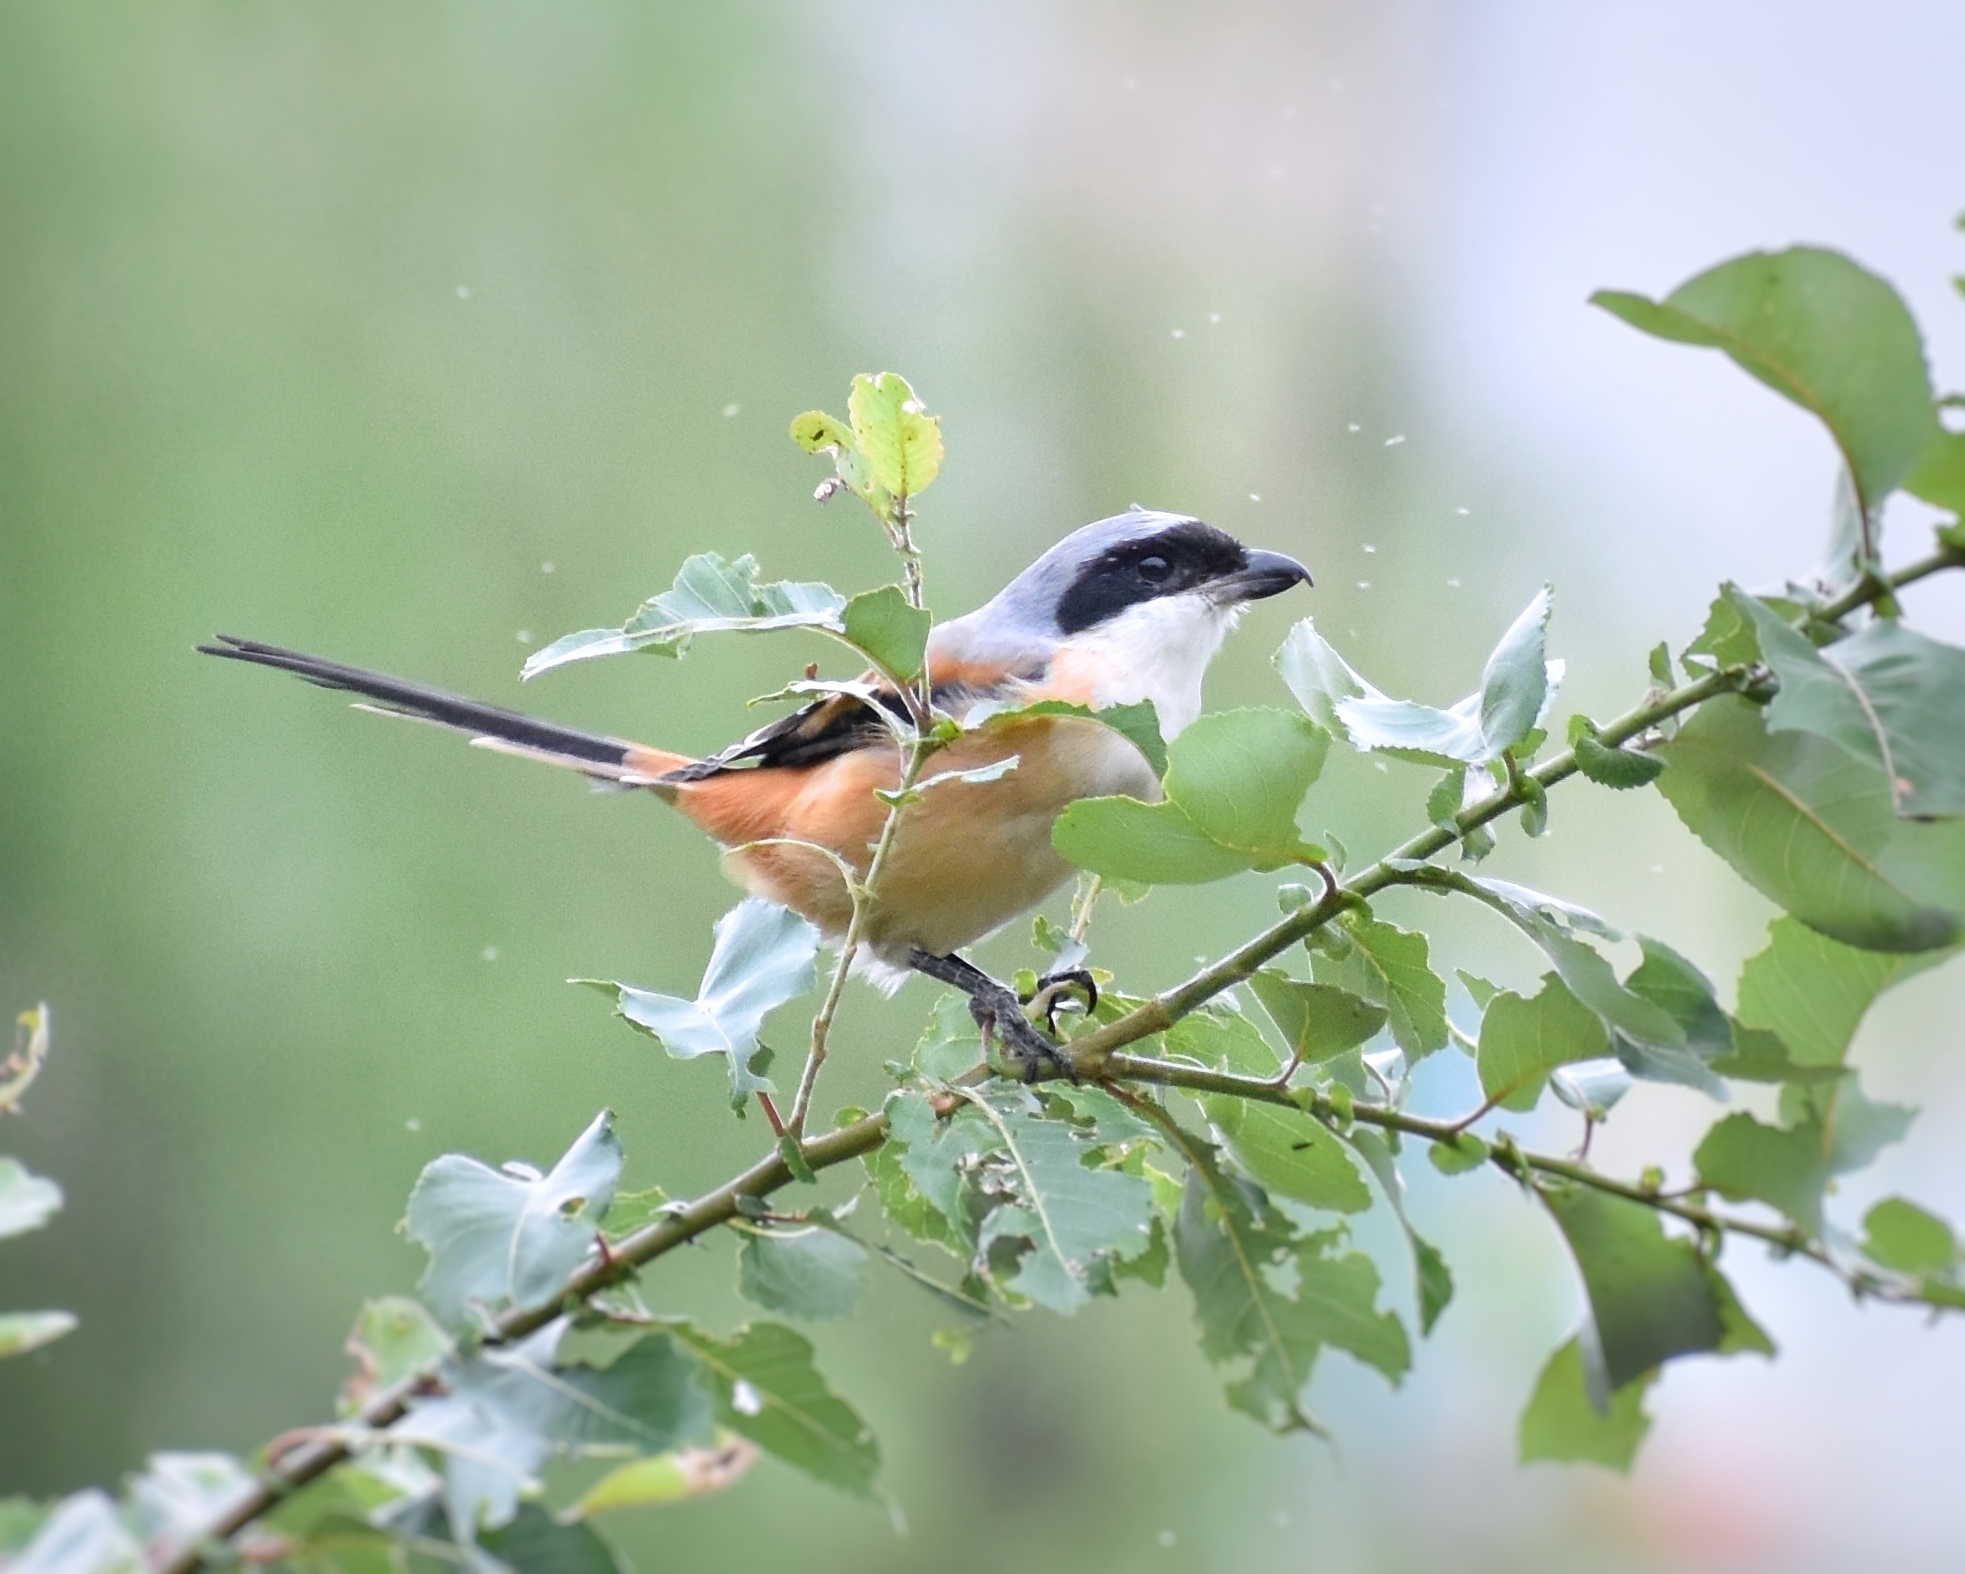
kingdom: Animalia
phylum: Chordata
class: Aves
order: Passeriformes
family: Laniidae
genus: Lanius
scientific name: Lanius schach
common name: Long-tailed shrike
